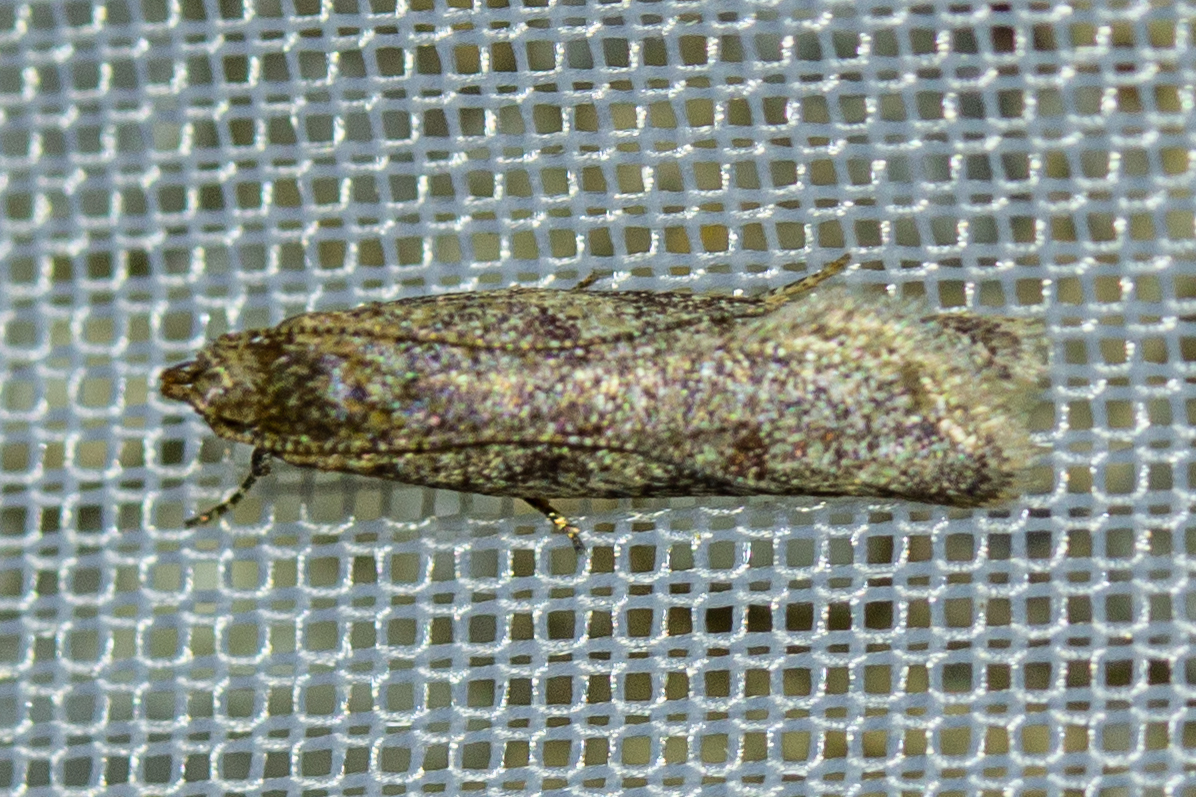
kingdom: Animalia
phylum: Arthropoda
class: Insecta
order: Lepidoptera
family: Oecophoridae
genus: Gymnobathra
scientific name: Gymnobathra tholodella
